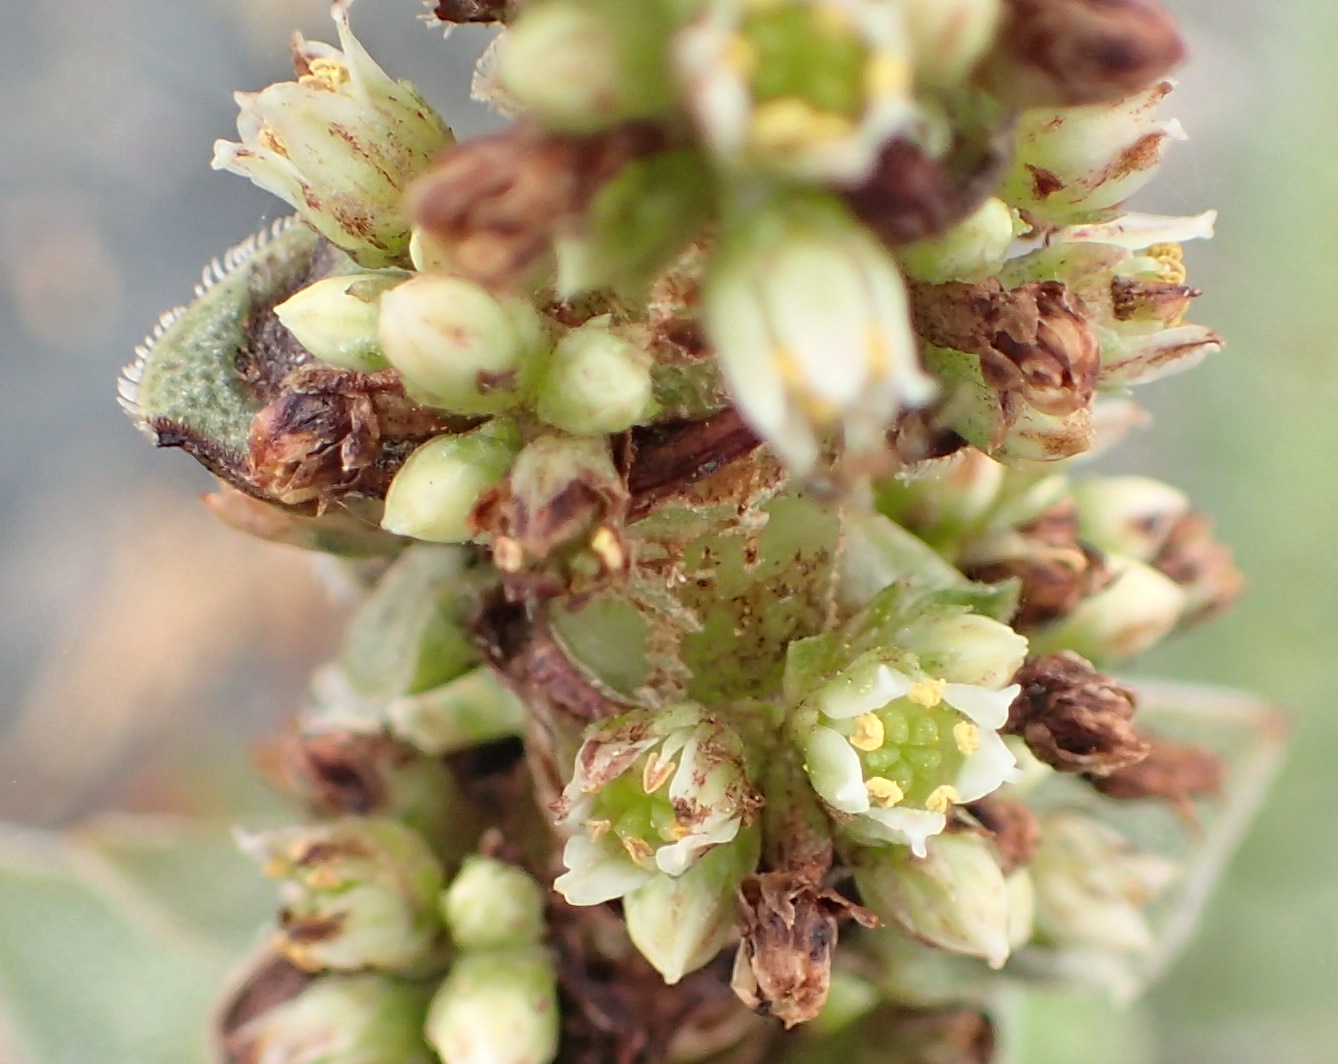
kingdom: Plantae
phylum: Tracheophyta
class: Magnoliopsida
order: Saxifragales
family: Crassulaceae
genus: Crassula
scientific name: Crassula obovata
